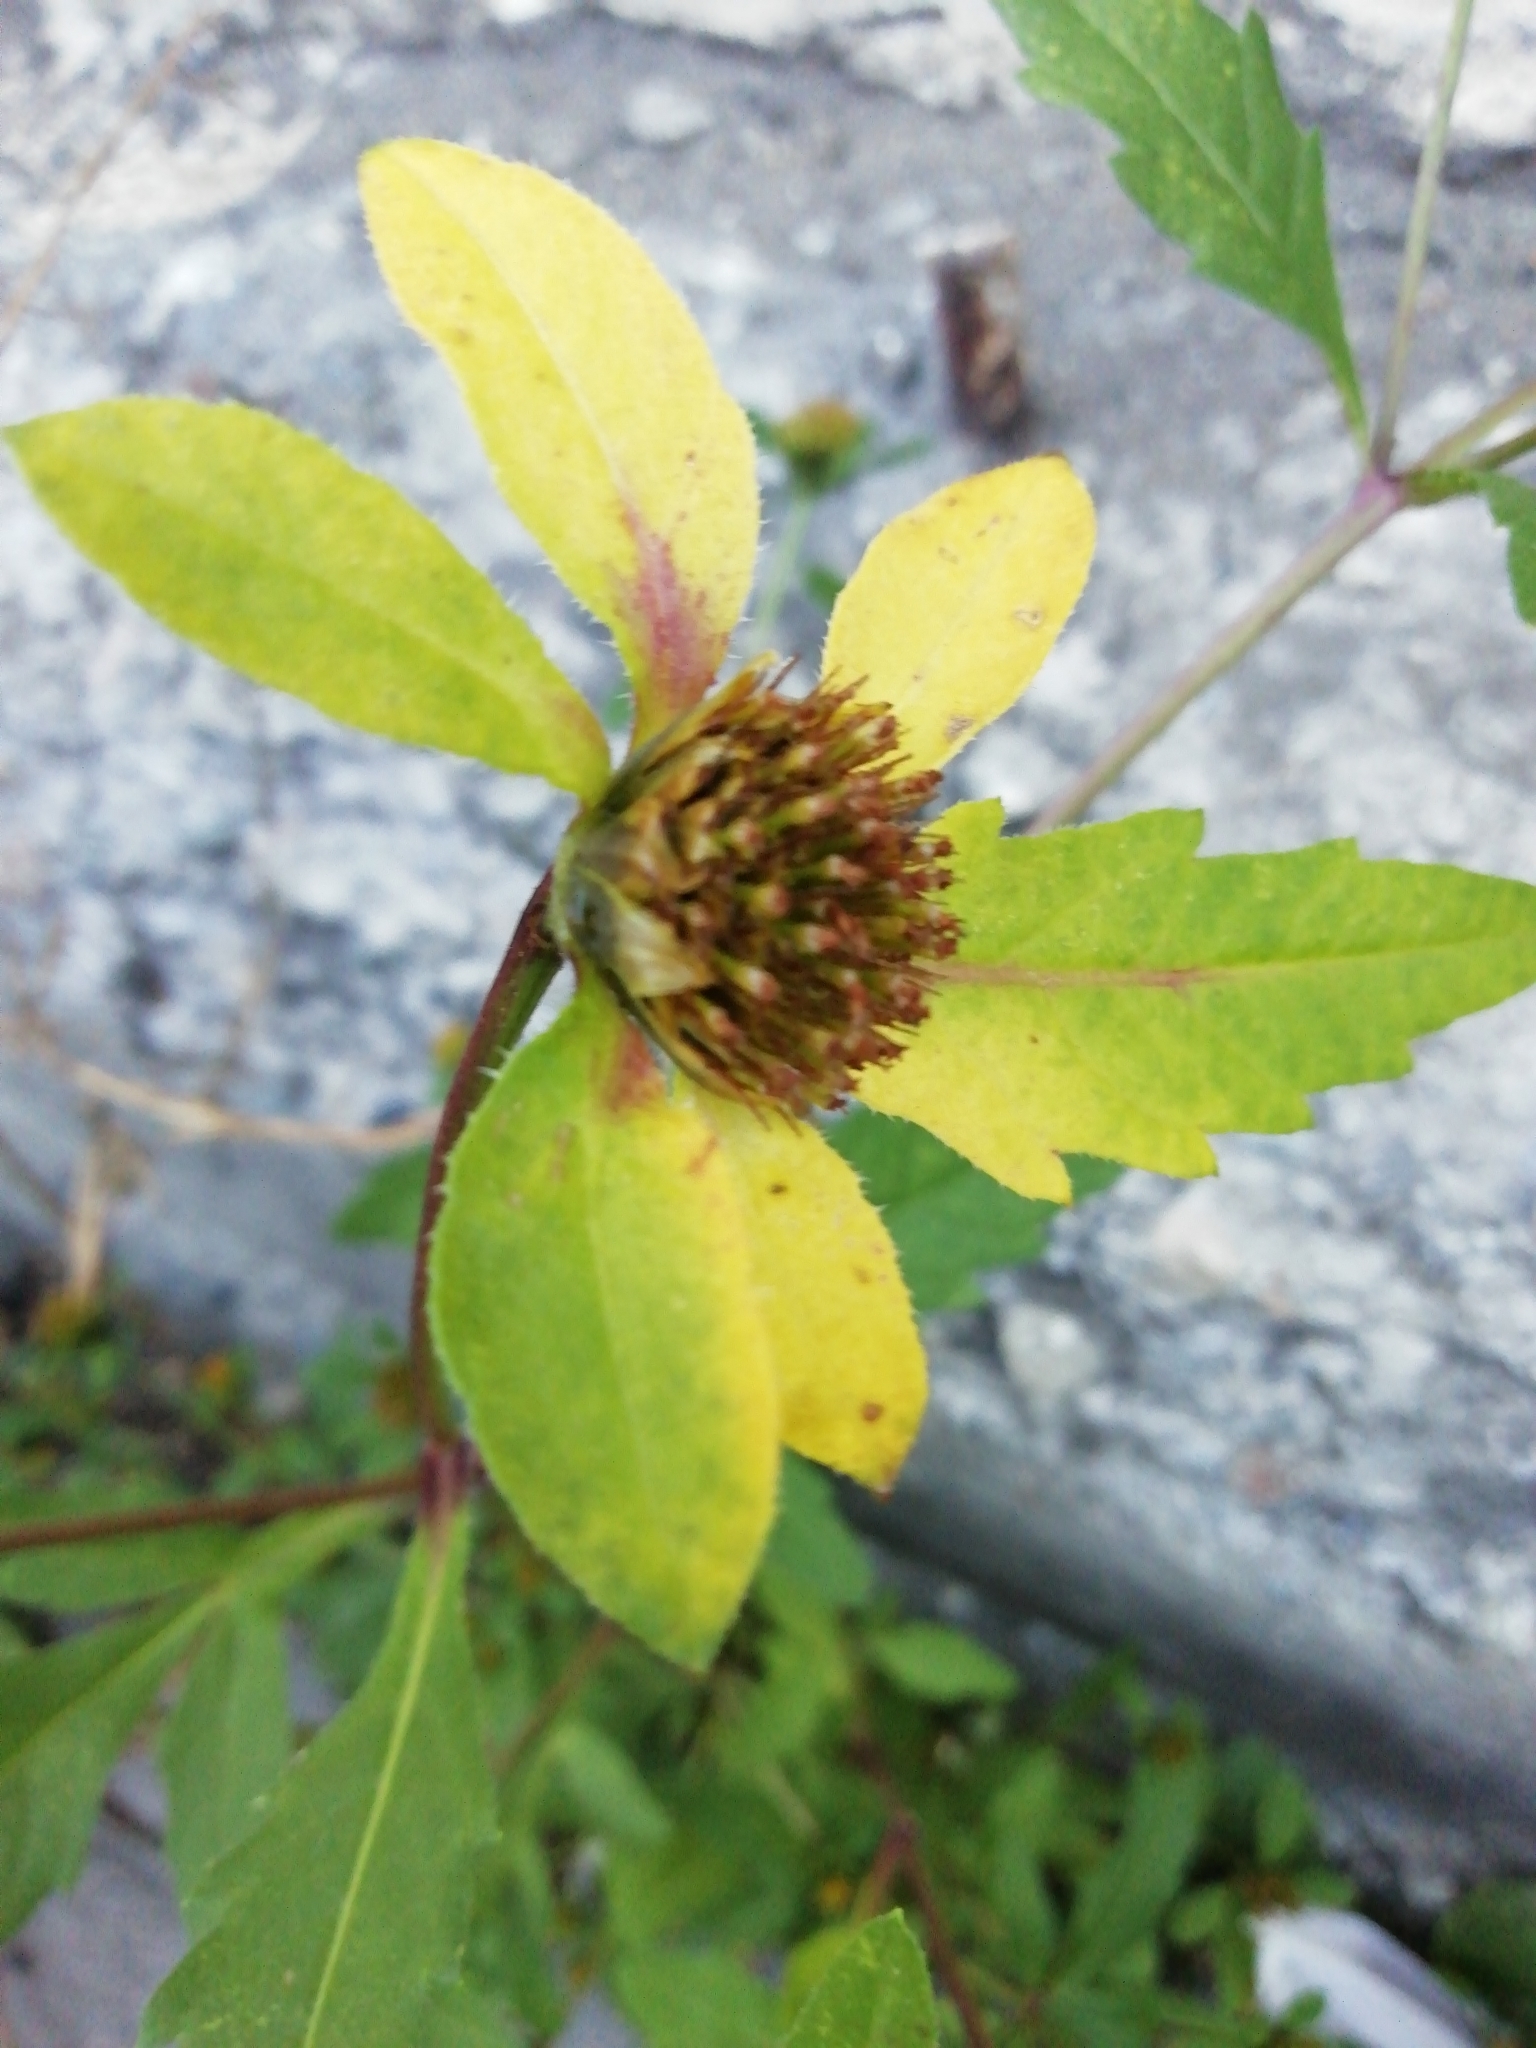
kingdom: Plantae
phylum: Tracheophyta
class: Magnoliopsida
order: Asterales
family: Asteraceae
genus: Bidens
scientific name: Bidens tripartita
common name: Trifid bur-marigold
